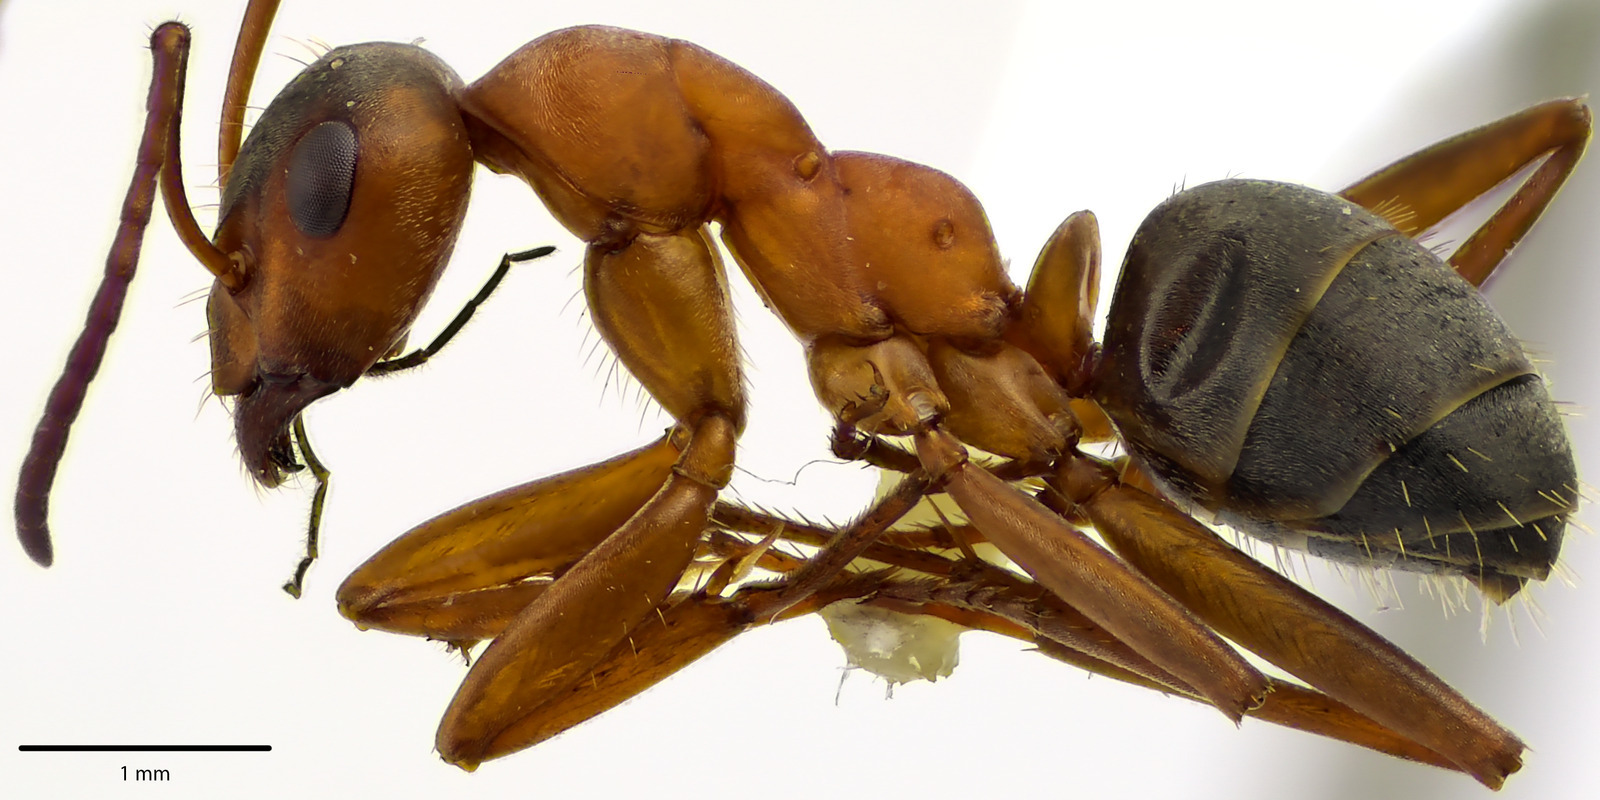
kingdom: Animalia
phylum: Arthropoda
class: Insecta
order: Hymenoptera
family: Formicidae
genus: Formica
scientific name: Formica moki
